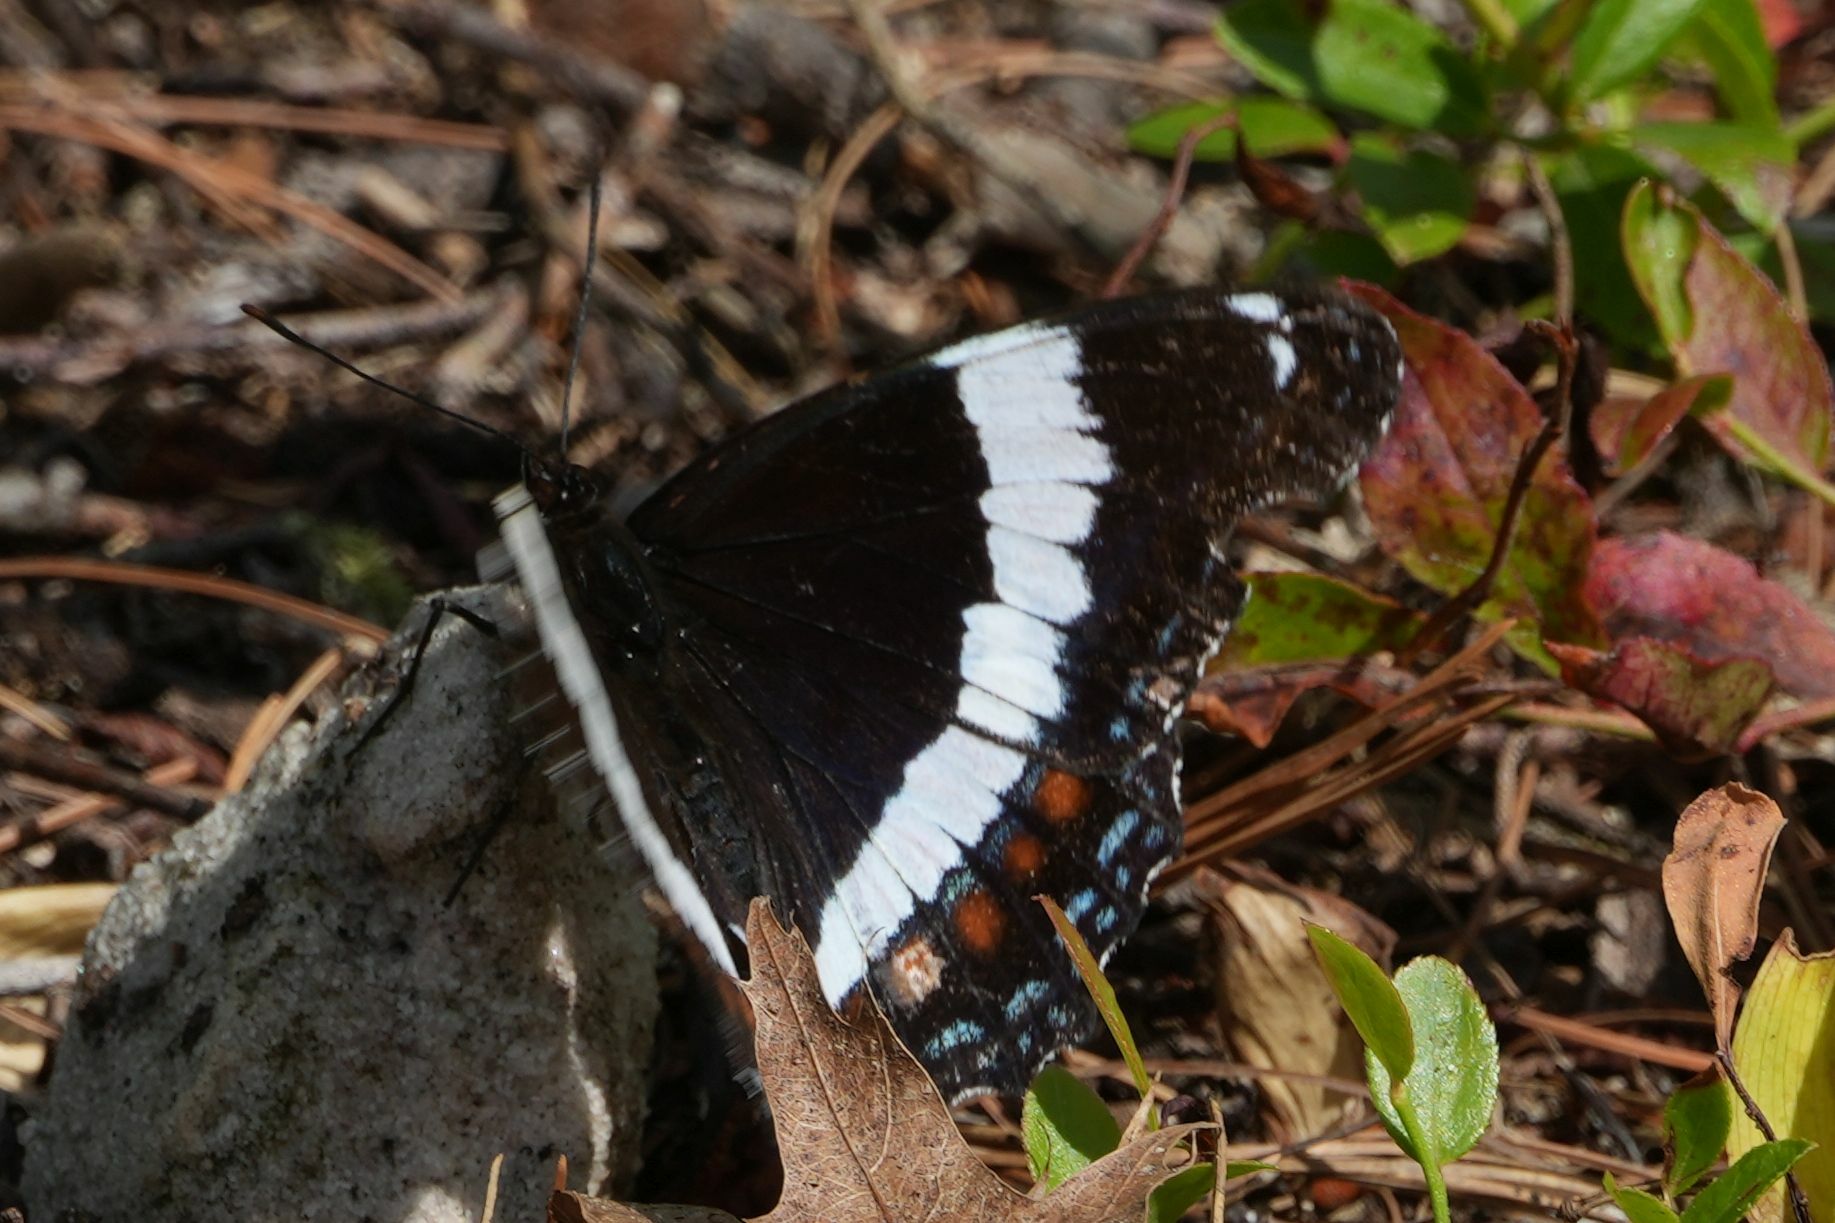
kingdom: Animalia
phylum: Arthropoda
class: Insecta
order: Lepidoptera
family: Nymphalidae
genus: Limenitis
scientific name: Limenitis arthemis
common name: Red-spotted admiral
